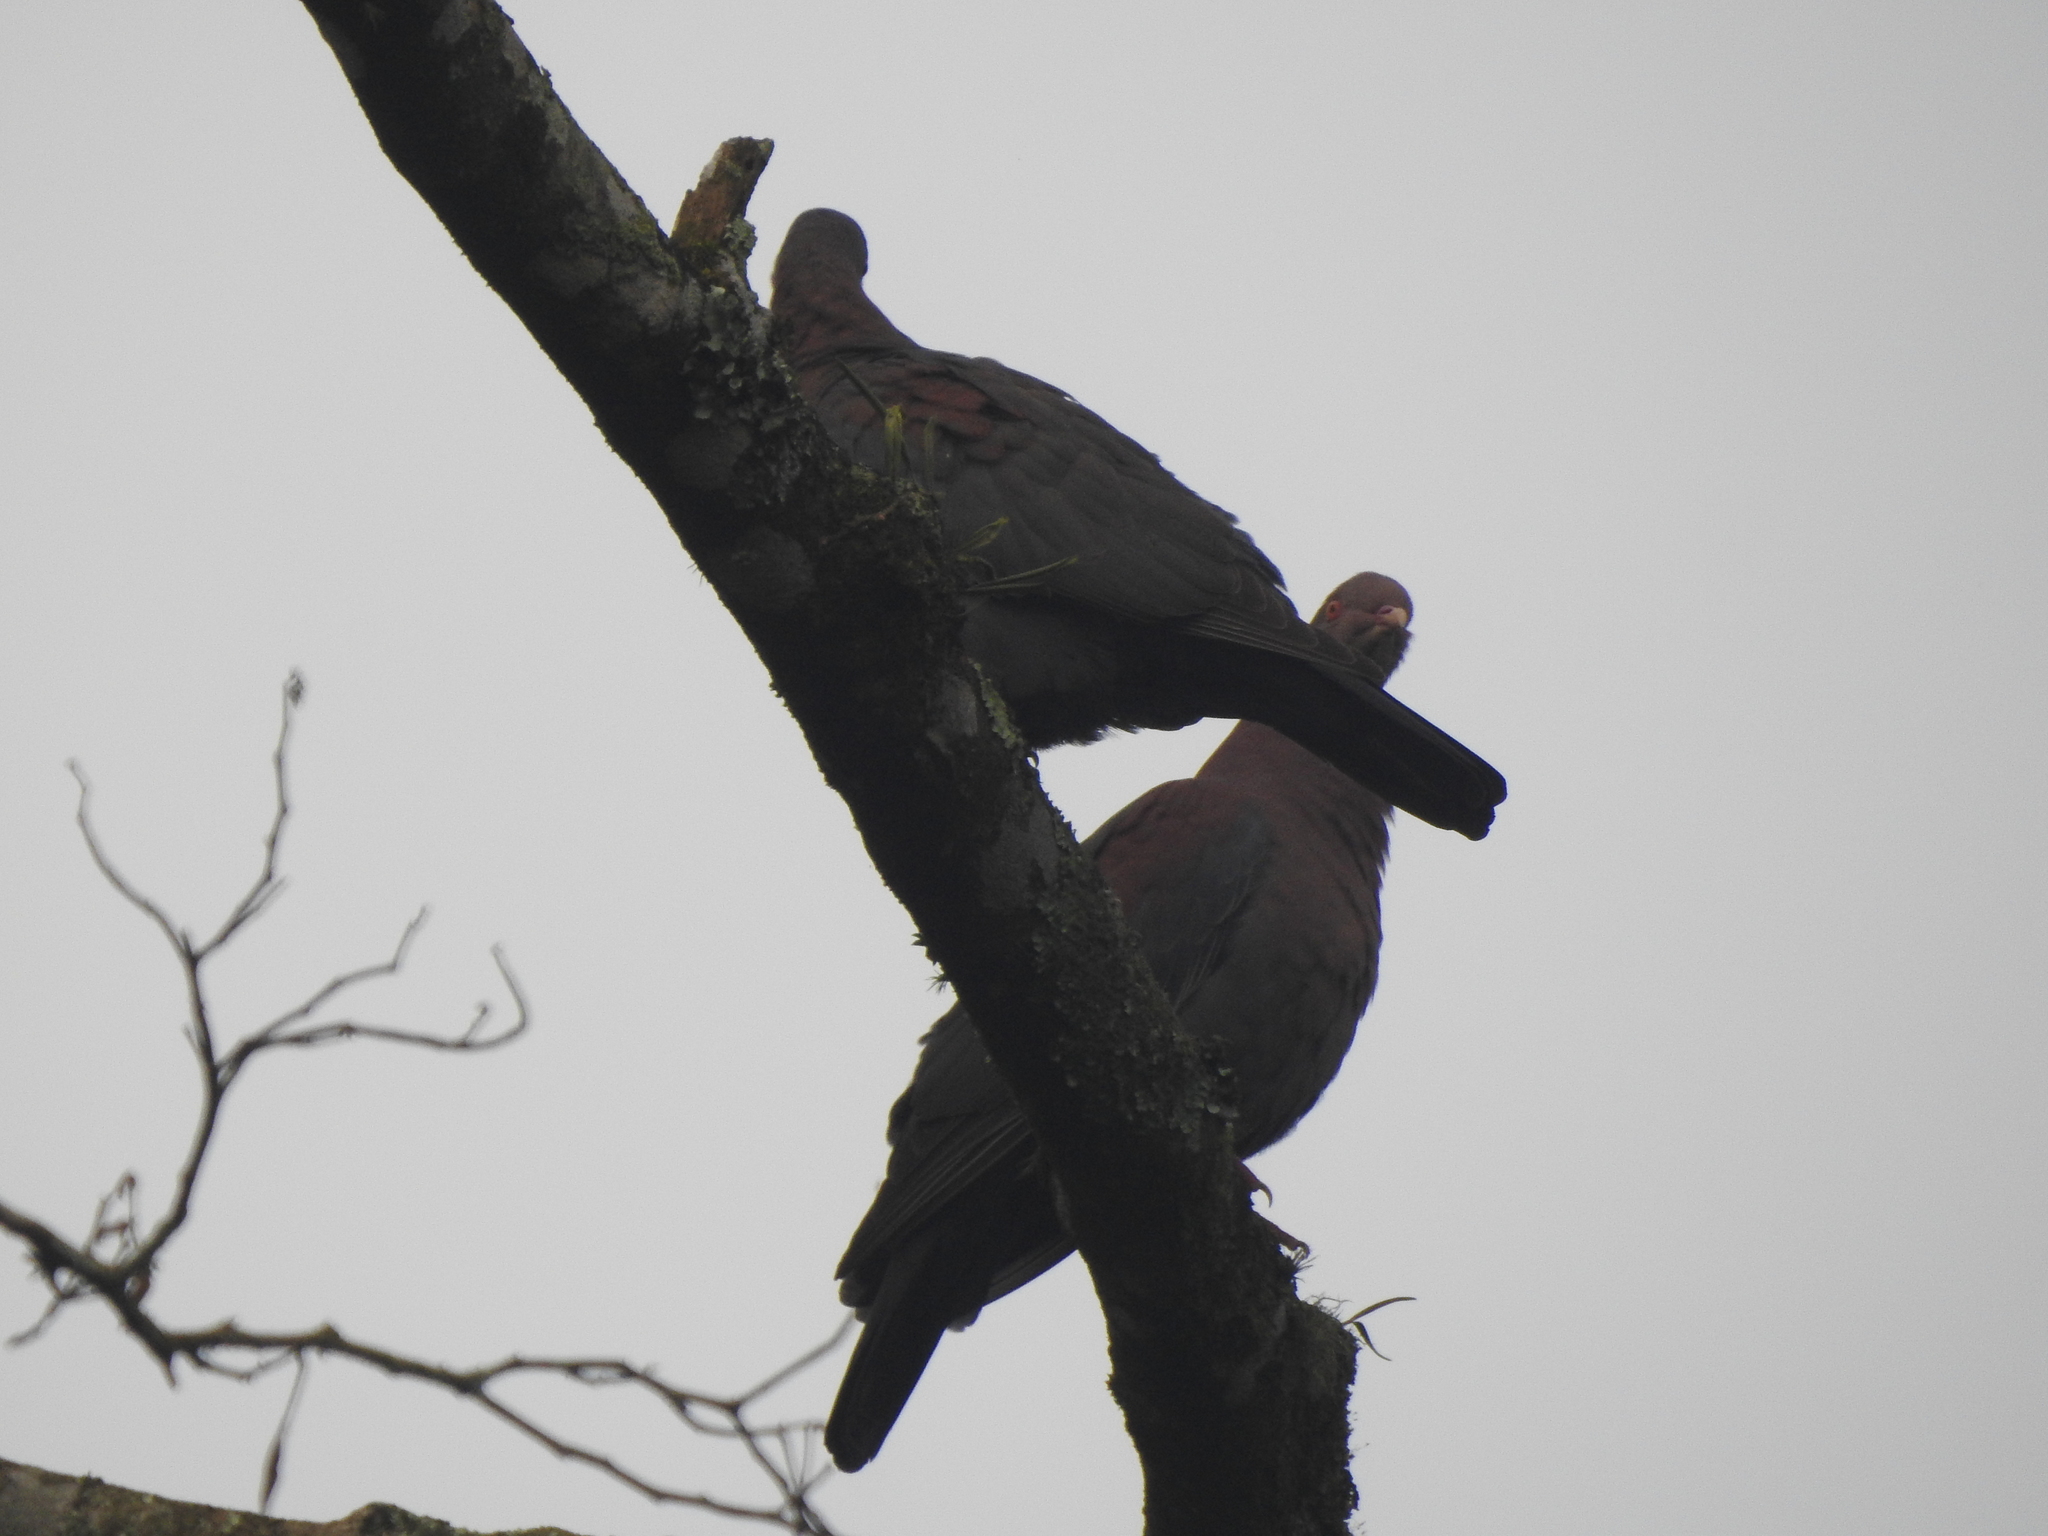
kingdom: Animalia
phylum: Chordata
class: Aves
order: Columbiformes
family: Columbidae
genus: Patagioenas
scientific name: Patagioenas flavirostris
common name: Red-billed pigeon
